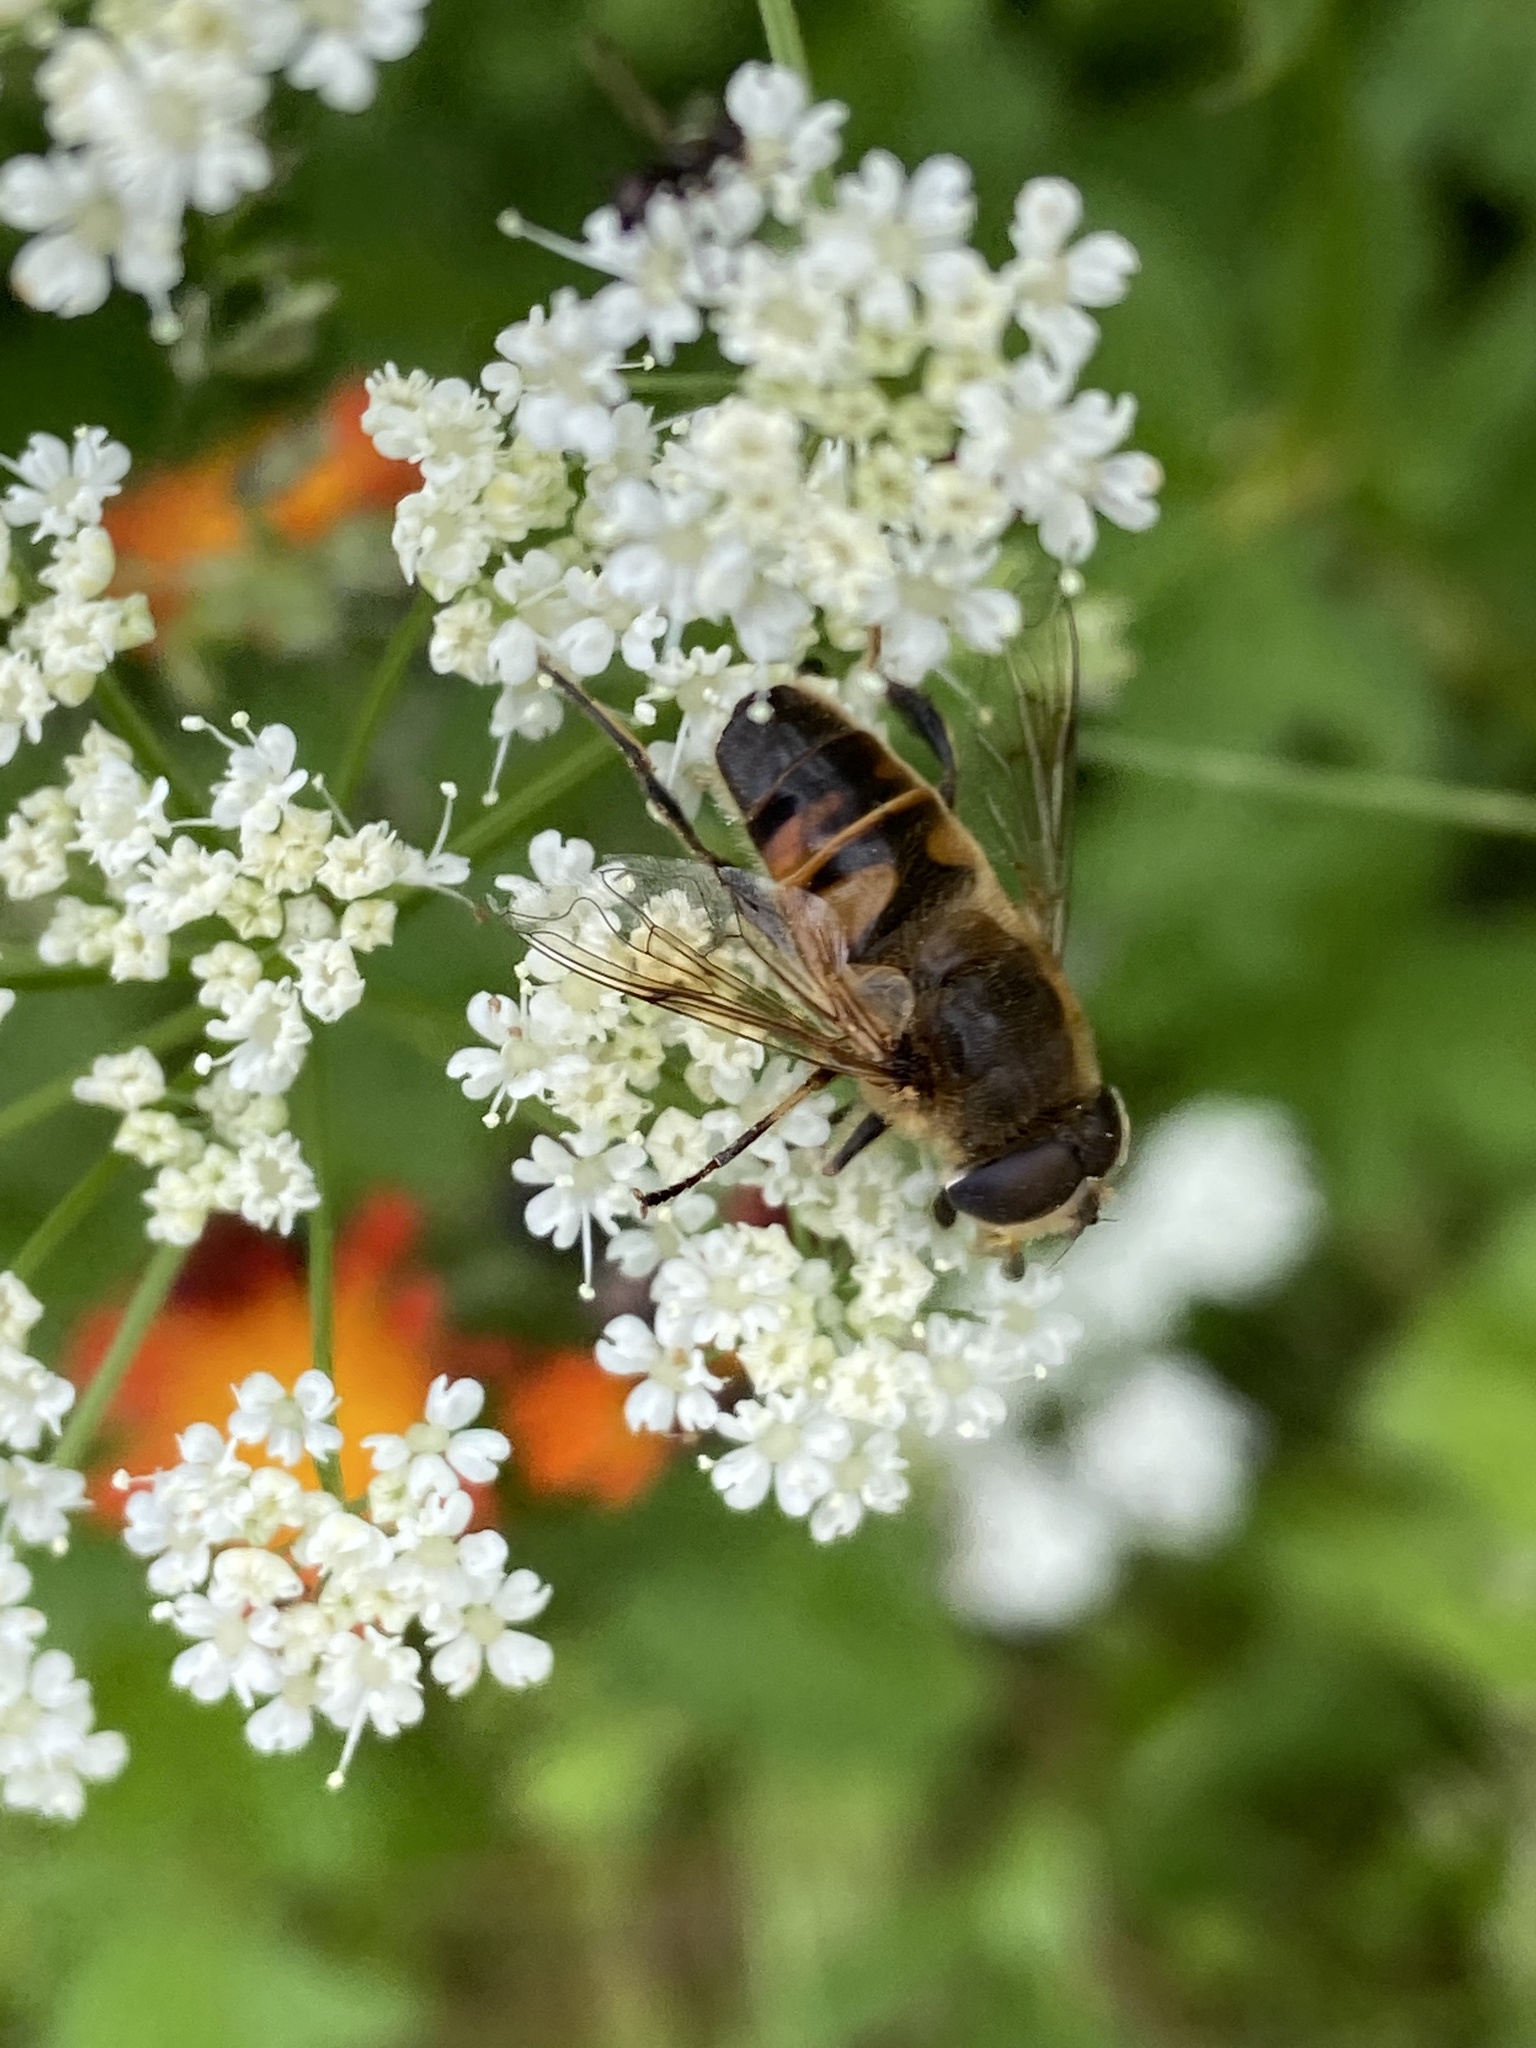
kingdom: Animalia
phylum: Arthropoda
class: Insecta
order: Diptera
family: Syrphidae
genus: Eristalis
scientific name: Eristalis tenax
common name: Drone fly
